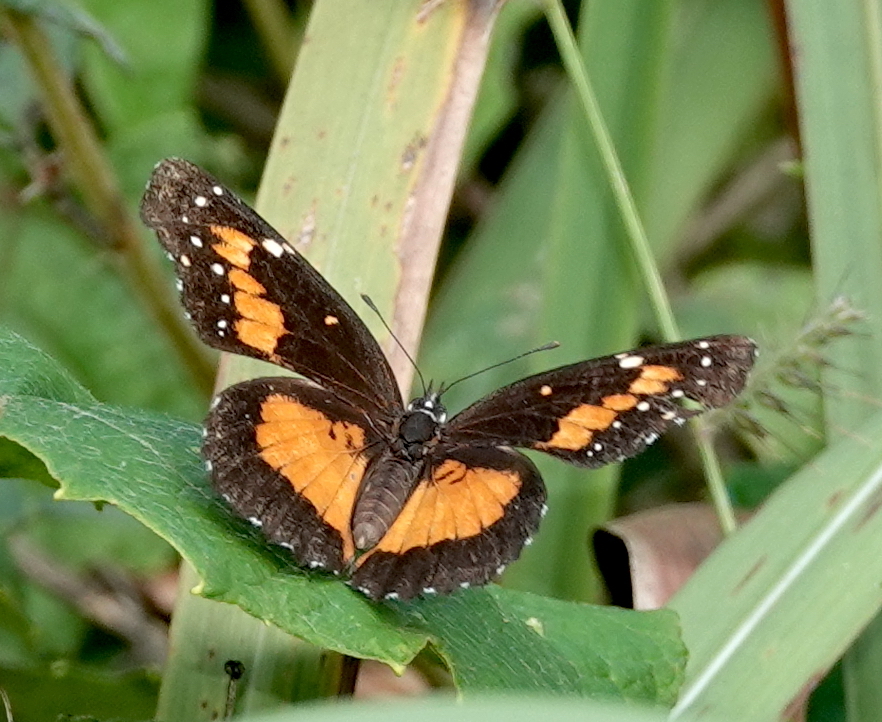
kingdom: Animalia
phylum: Arthropoda
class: Insecta
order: Lepidoptera
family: Nymphalidae
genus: Chlosyne
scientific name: Chlosyne lacinia
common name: Bordered patch
